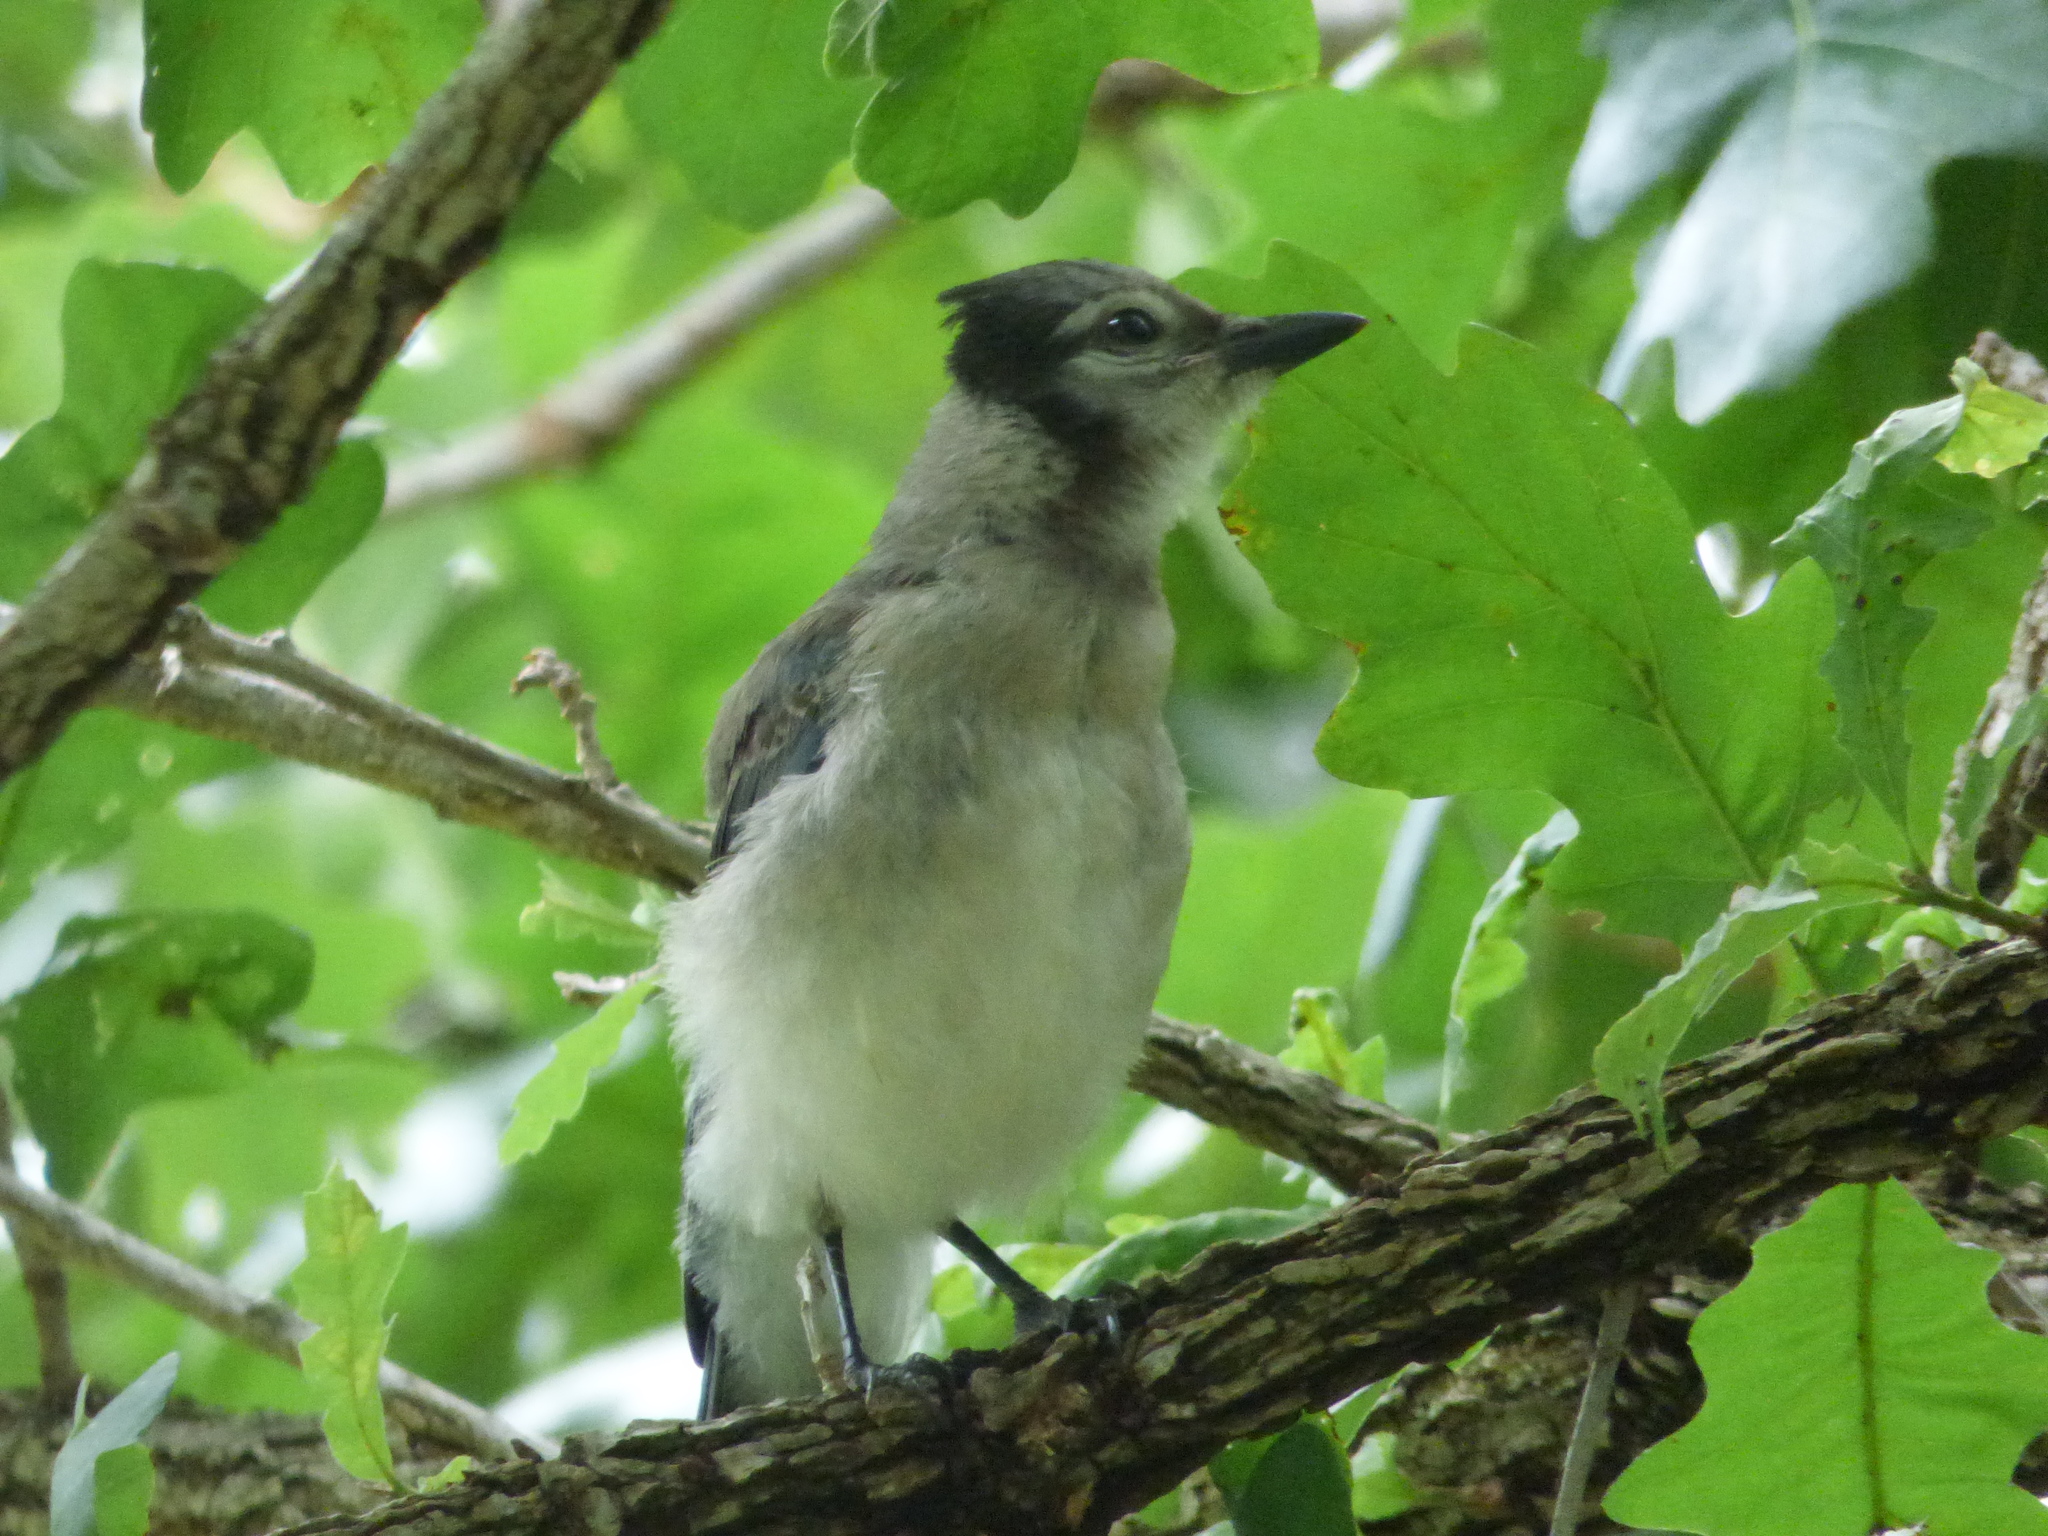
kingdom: Animalia
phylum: Chordata
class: Aves
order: Passeriformes
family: Corvidae
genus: Cyanocitta
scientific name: Cyanocitta cristata
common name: Blue jay
